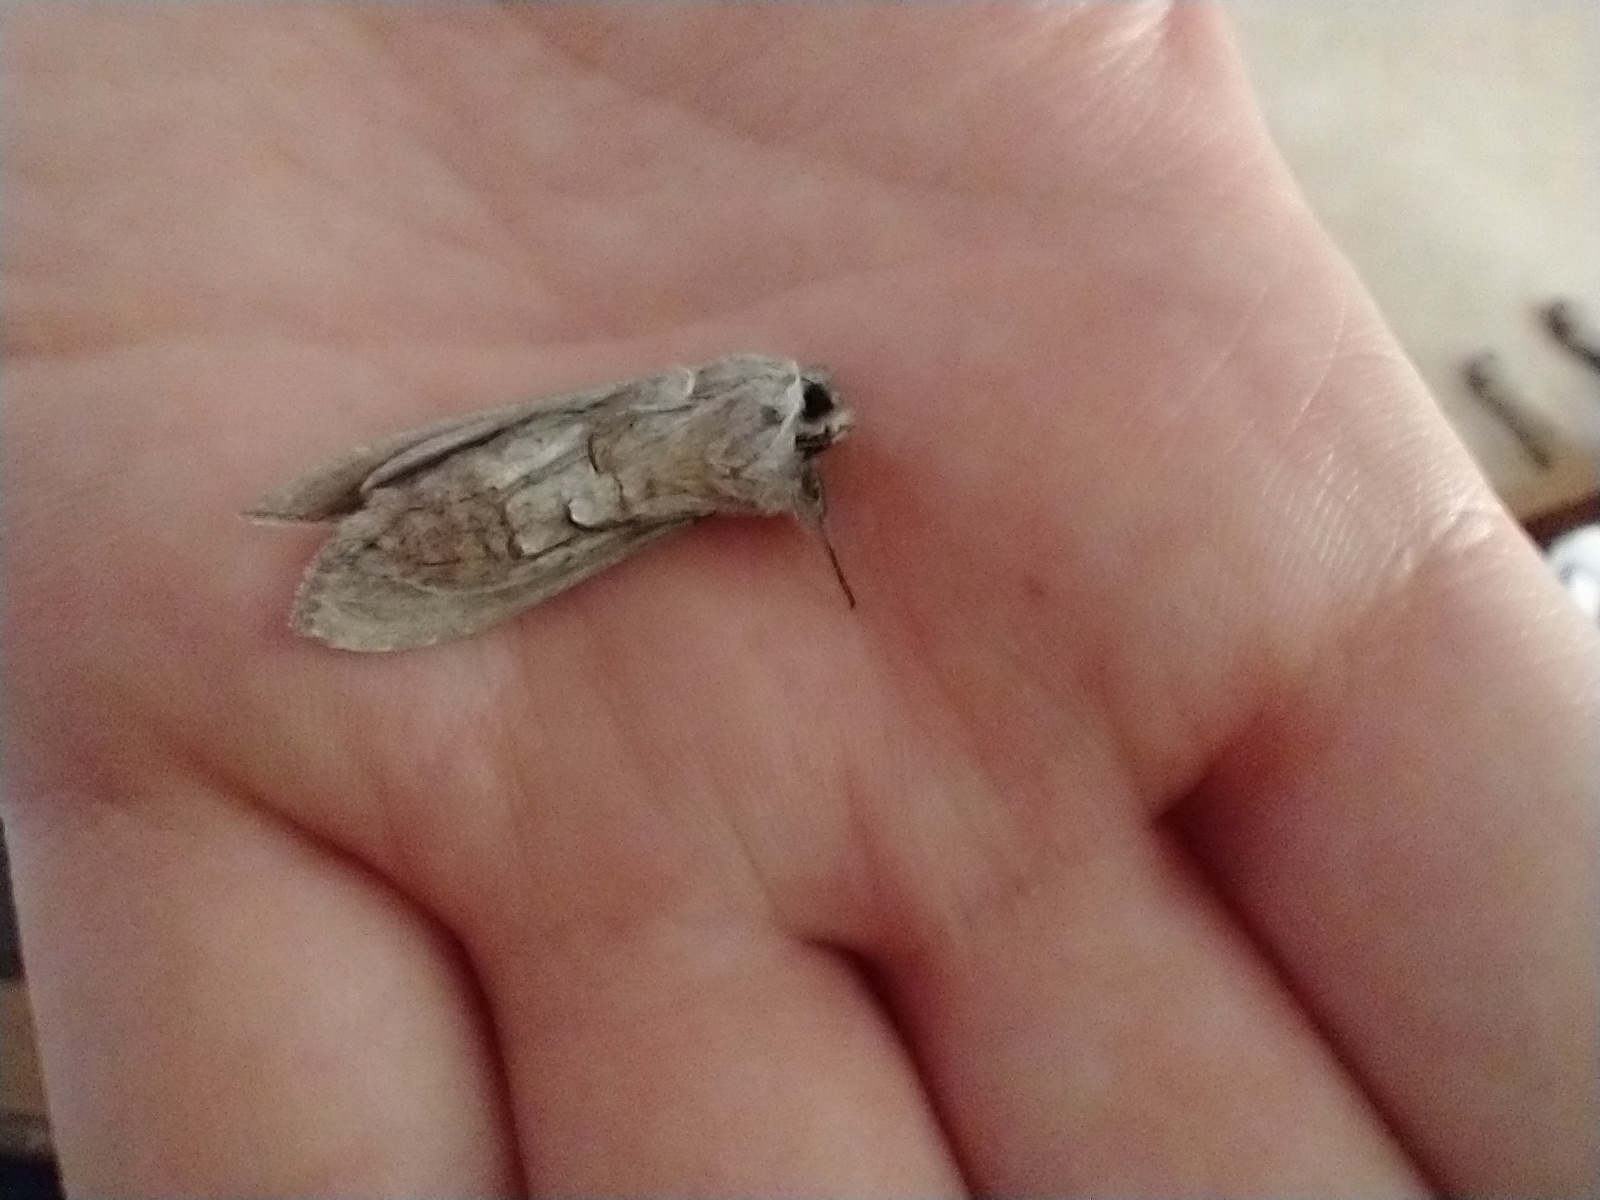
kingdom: Animalia
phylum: Arthropoda
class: Insecta
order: Lepidoptera
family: Noctuidae
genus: Cucullia
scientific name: Cucullia intermedia
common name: Goldenrod cutworm
